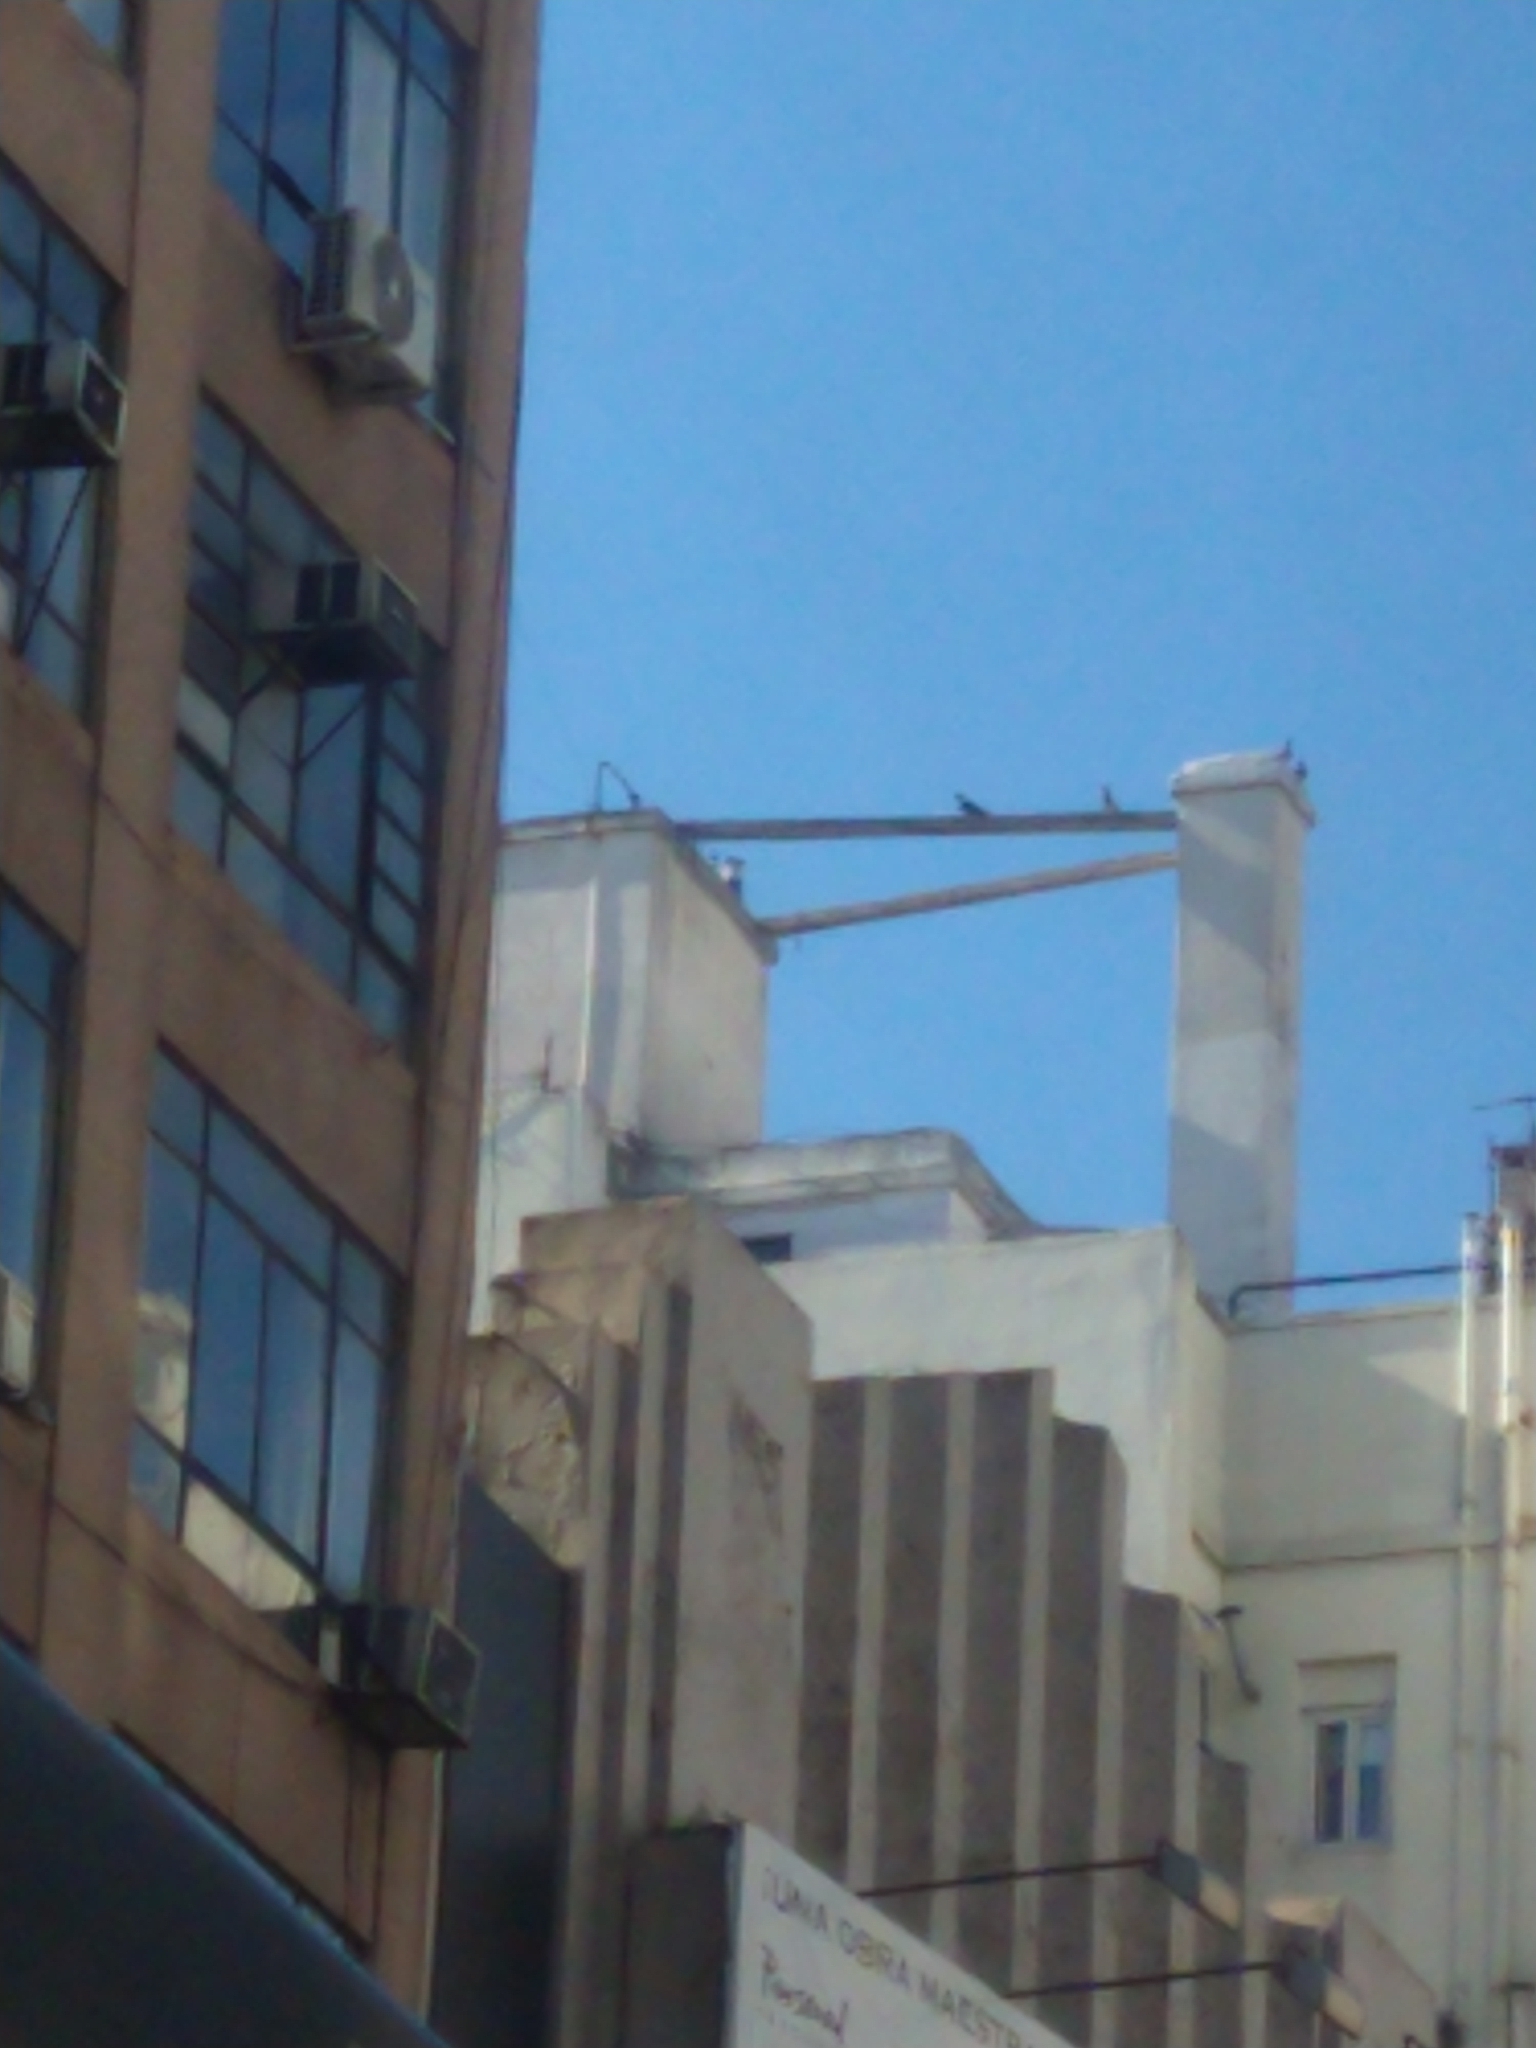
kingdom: Animalia
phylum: Chordata
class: Aves
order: Columbiformes
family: Columbidae
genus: Columba
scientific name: Columba livia
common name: Rock pigeon
